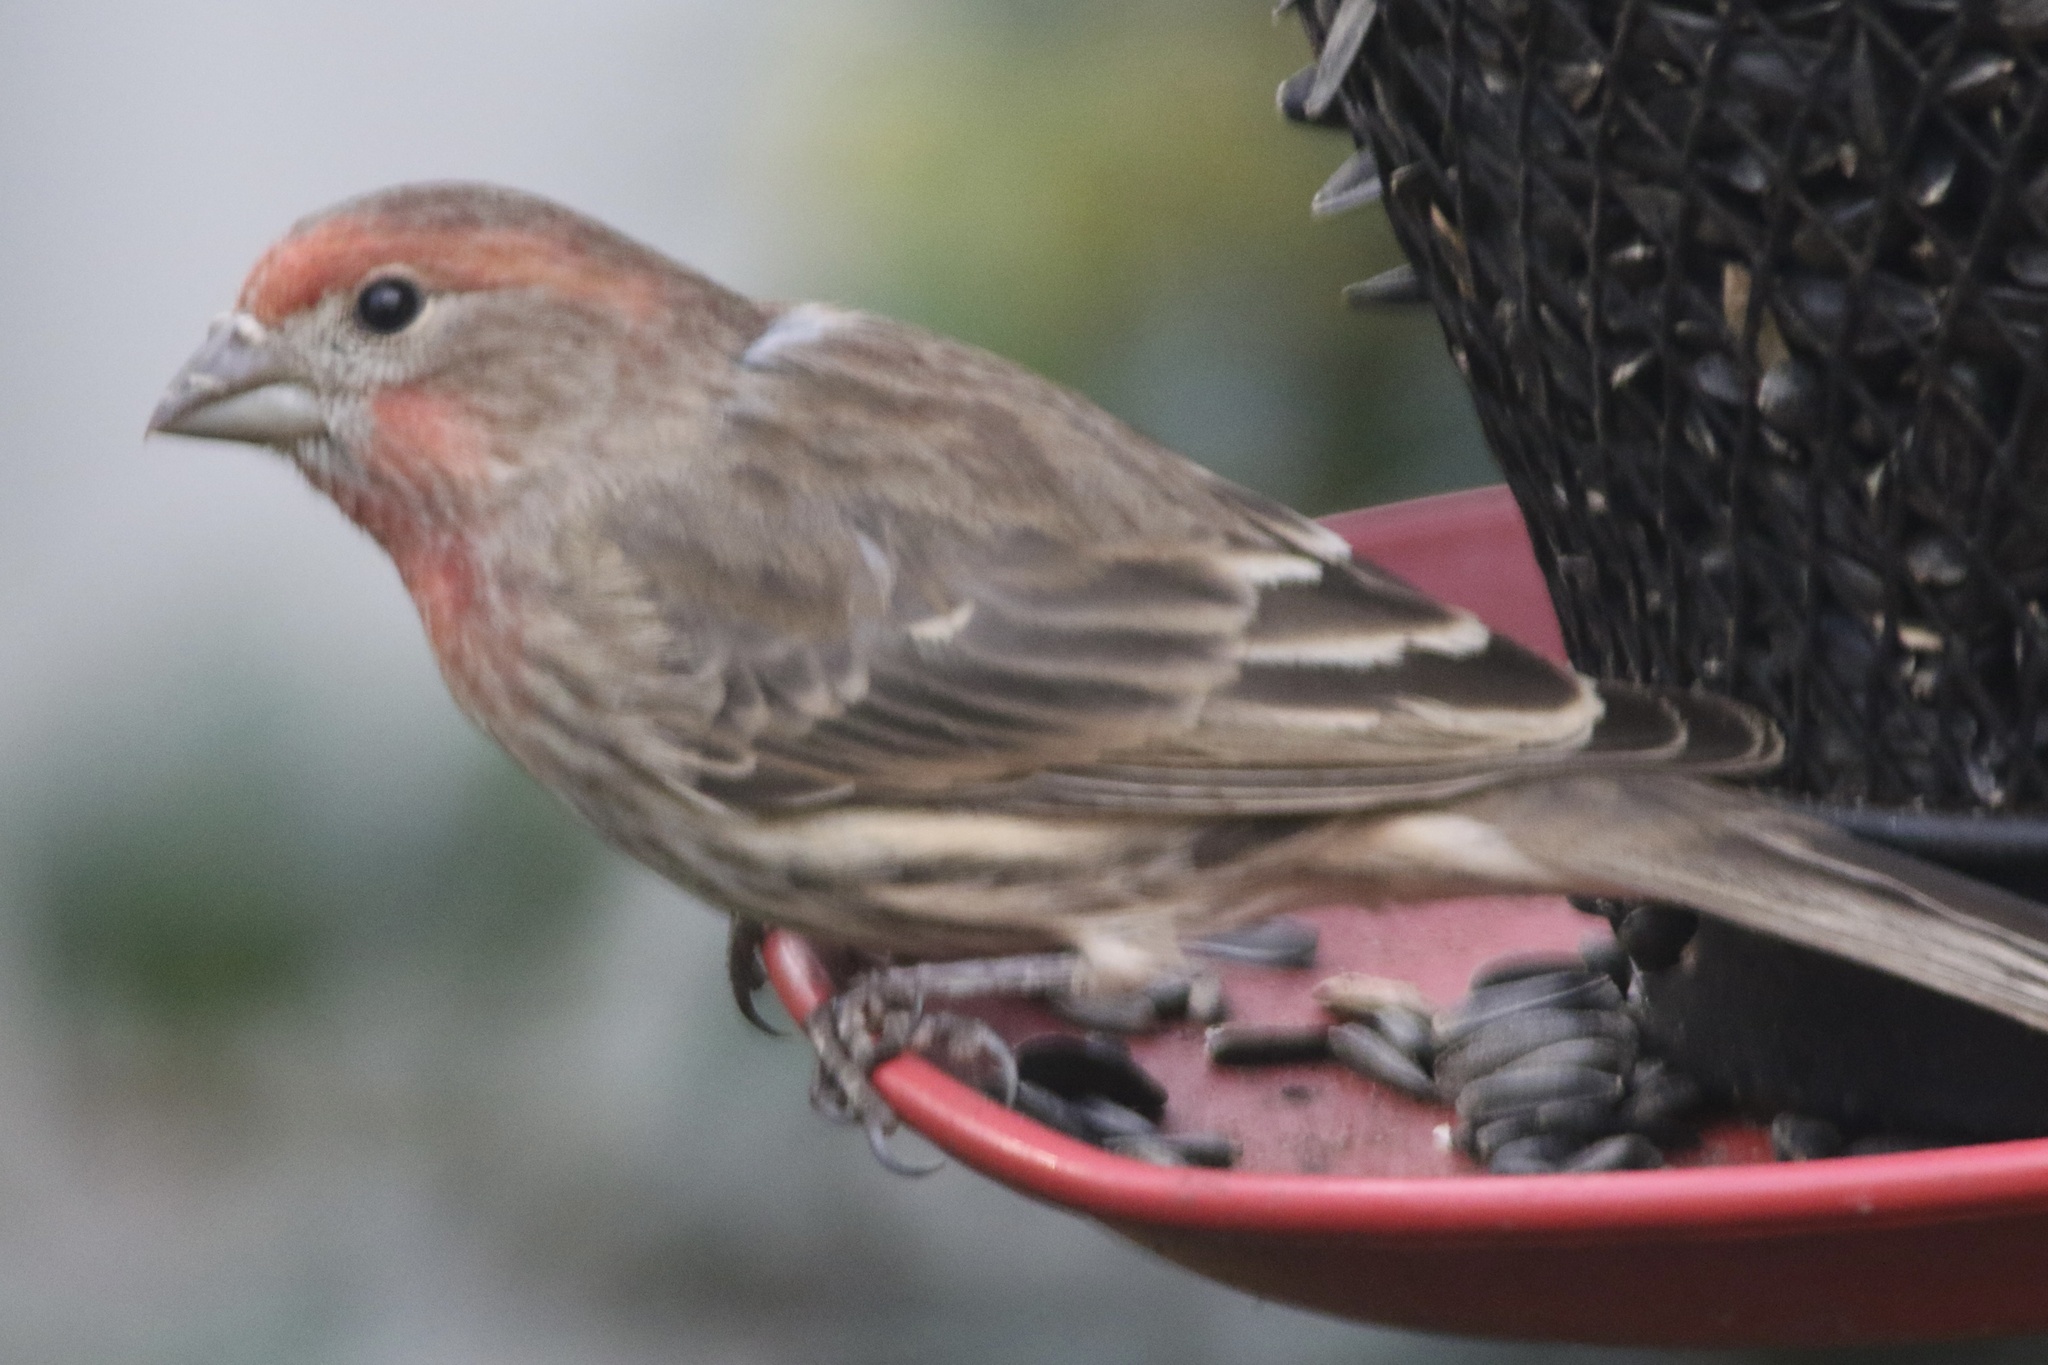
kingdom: Animalia
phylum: Chordata
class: Aves
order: Passeriformes
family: Fringillidae
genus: Haemorhous
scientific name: Haemorhous mexicanus
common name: House finch
